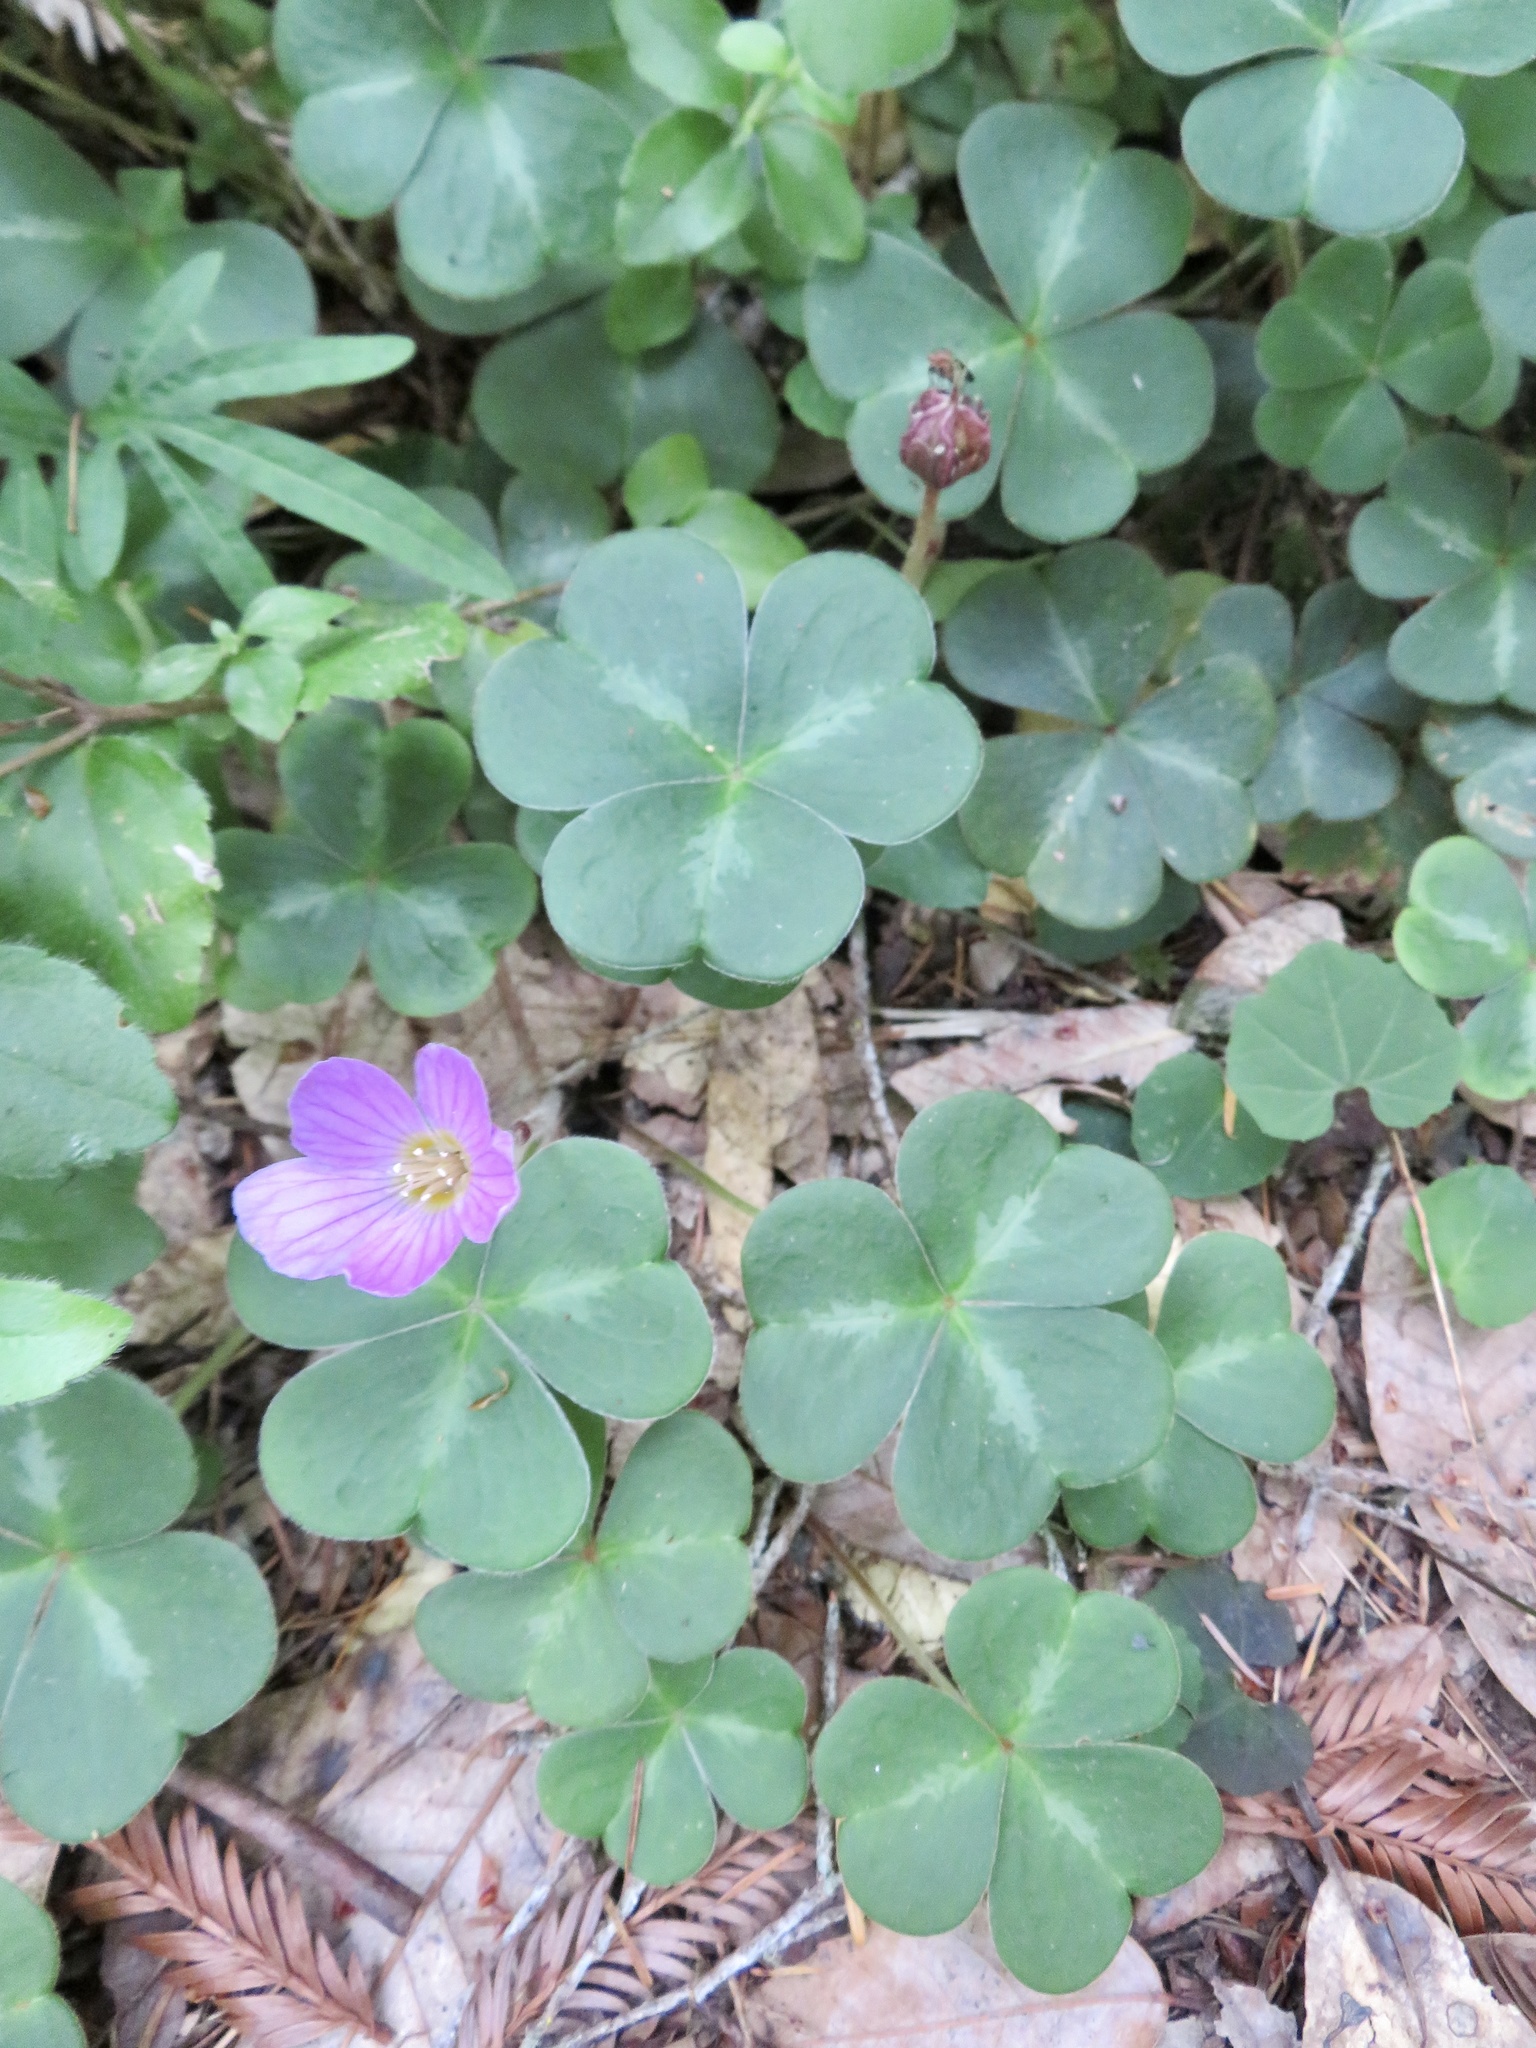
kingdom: Plantae
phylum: Tracheophyta
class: Magnoliopsida
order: Oxalidales
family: Oxalidaceae
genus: Oxalis
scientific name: Oxalis oregana
